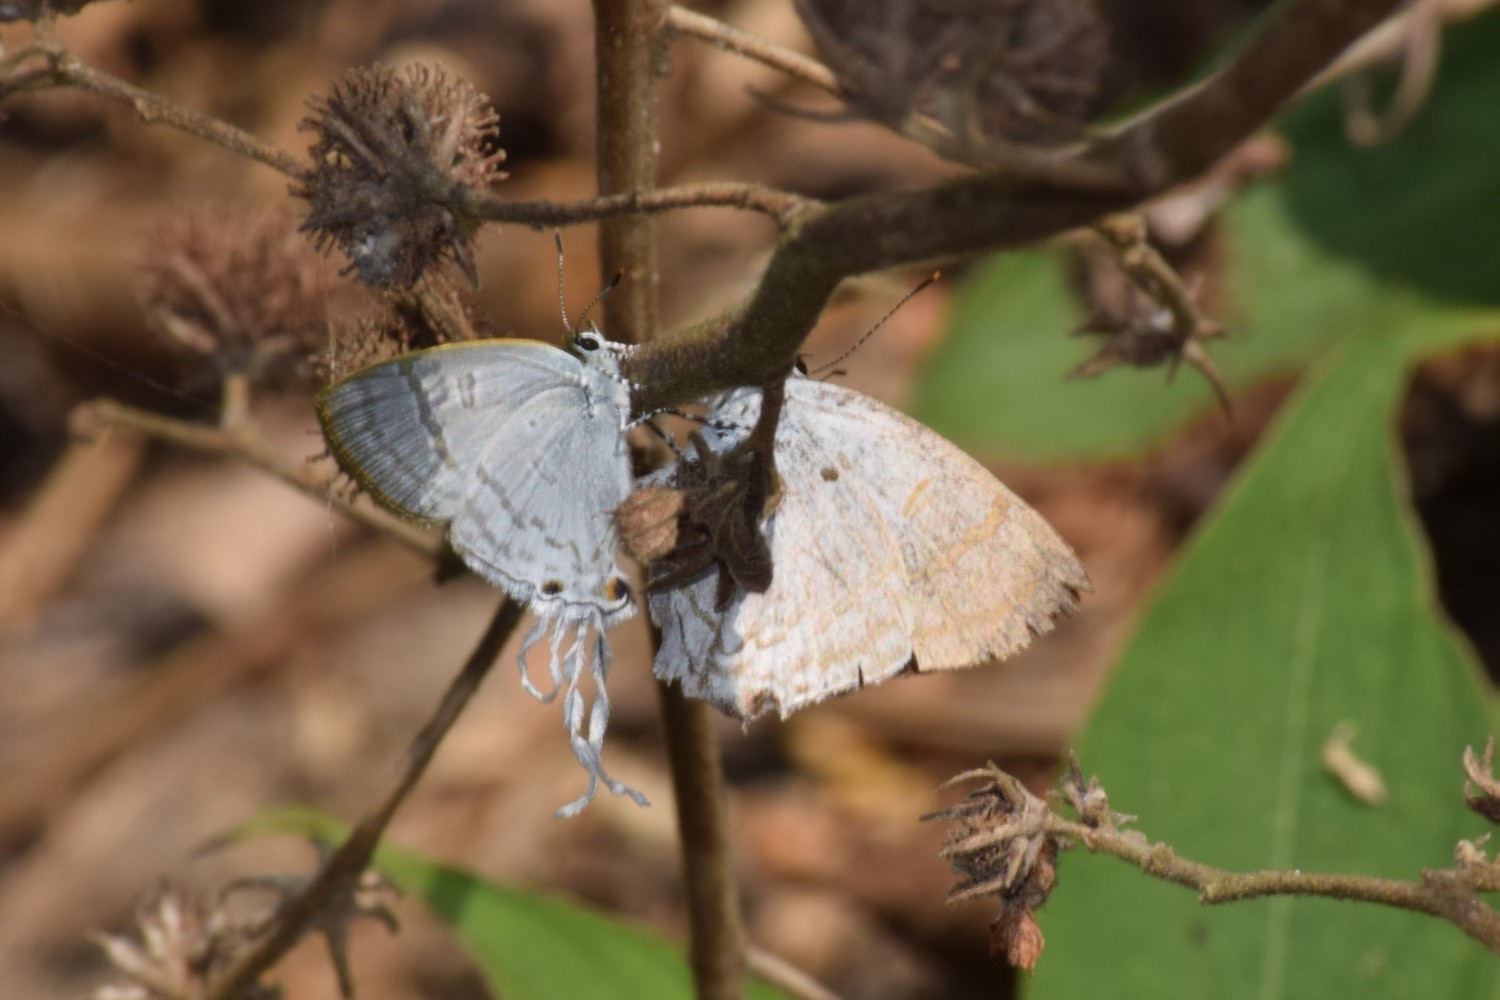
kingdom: Animalia
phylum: Arthropoda
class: Insecta
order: Lepidoptera
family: Lycaenidae
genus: Zeltus
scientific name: Zeltus amasa
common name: Fluffy tit
